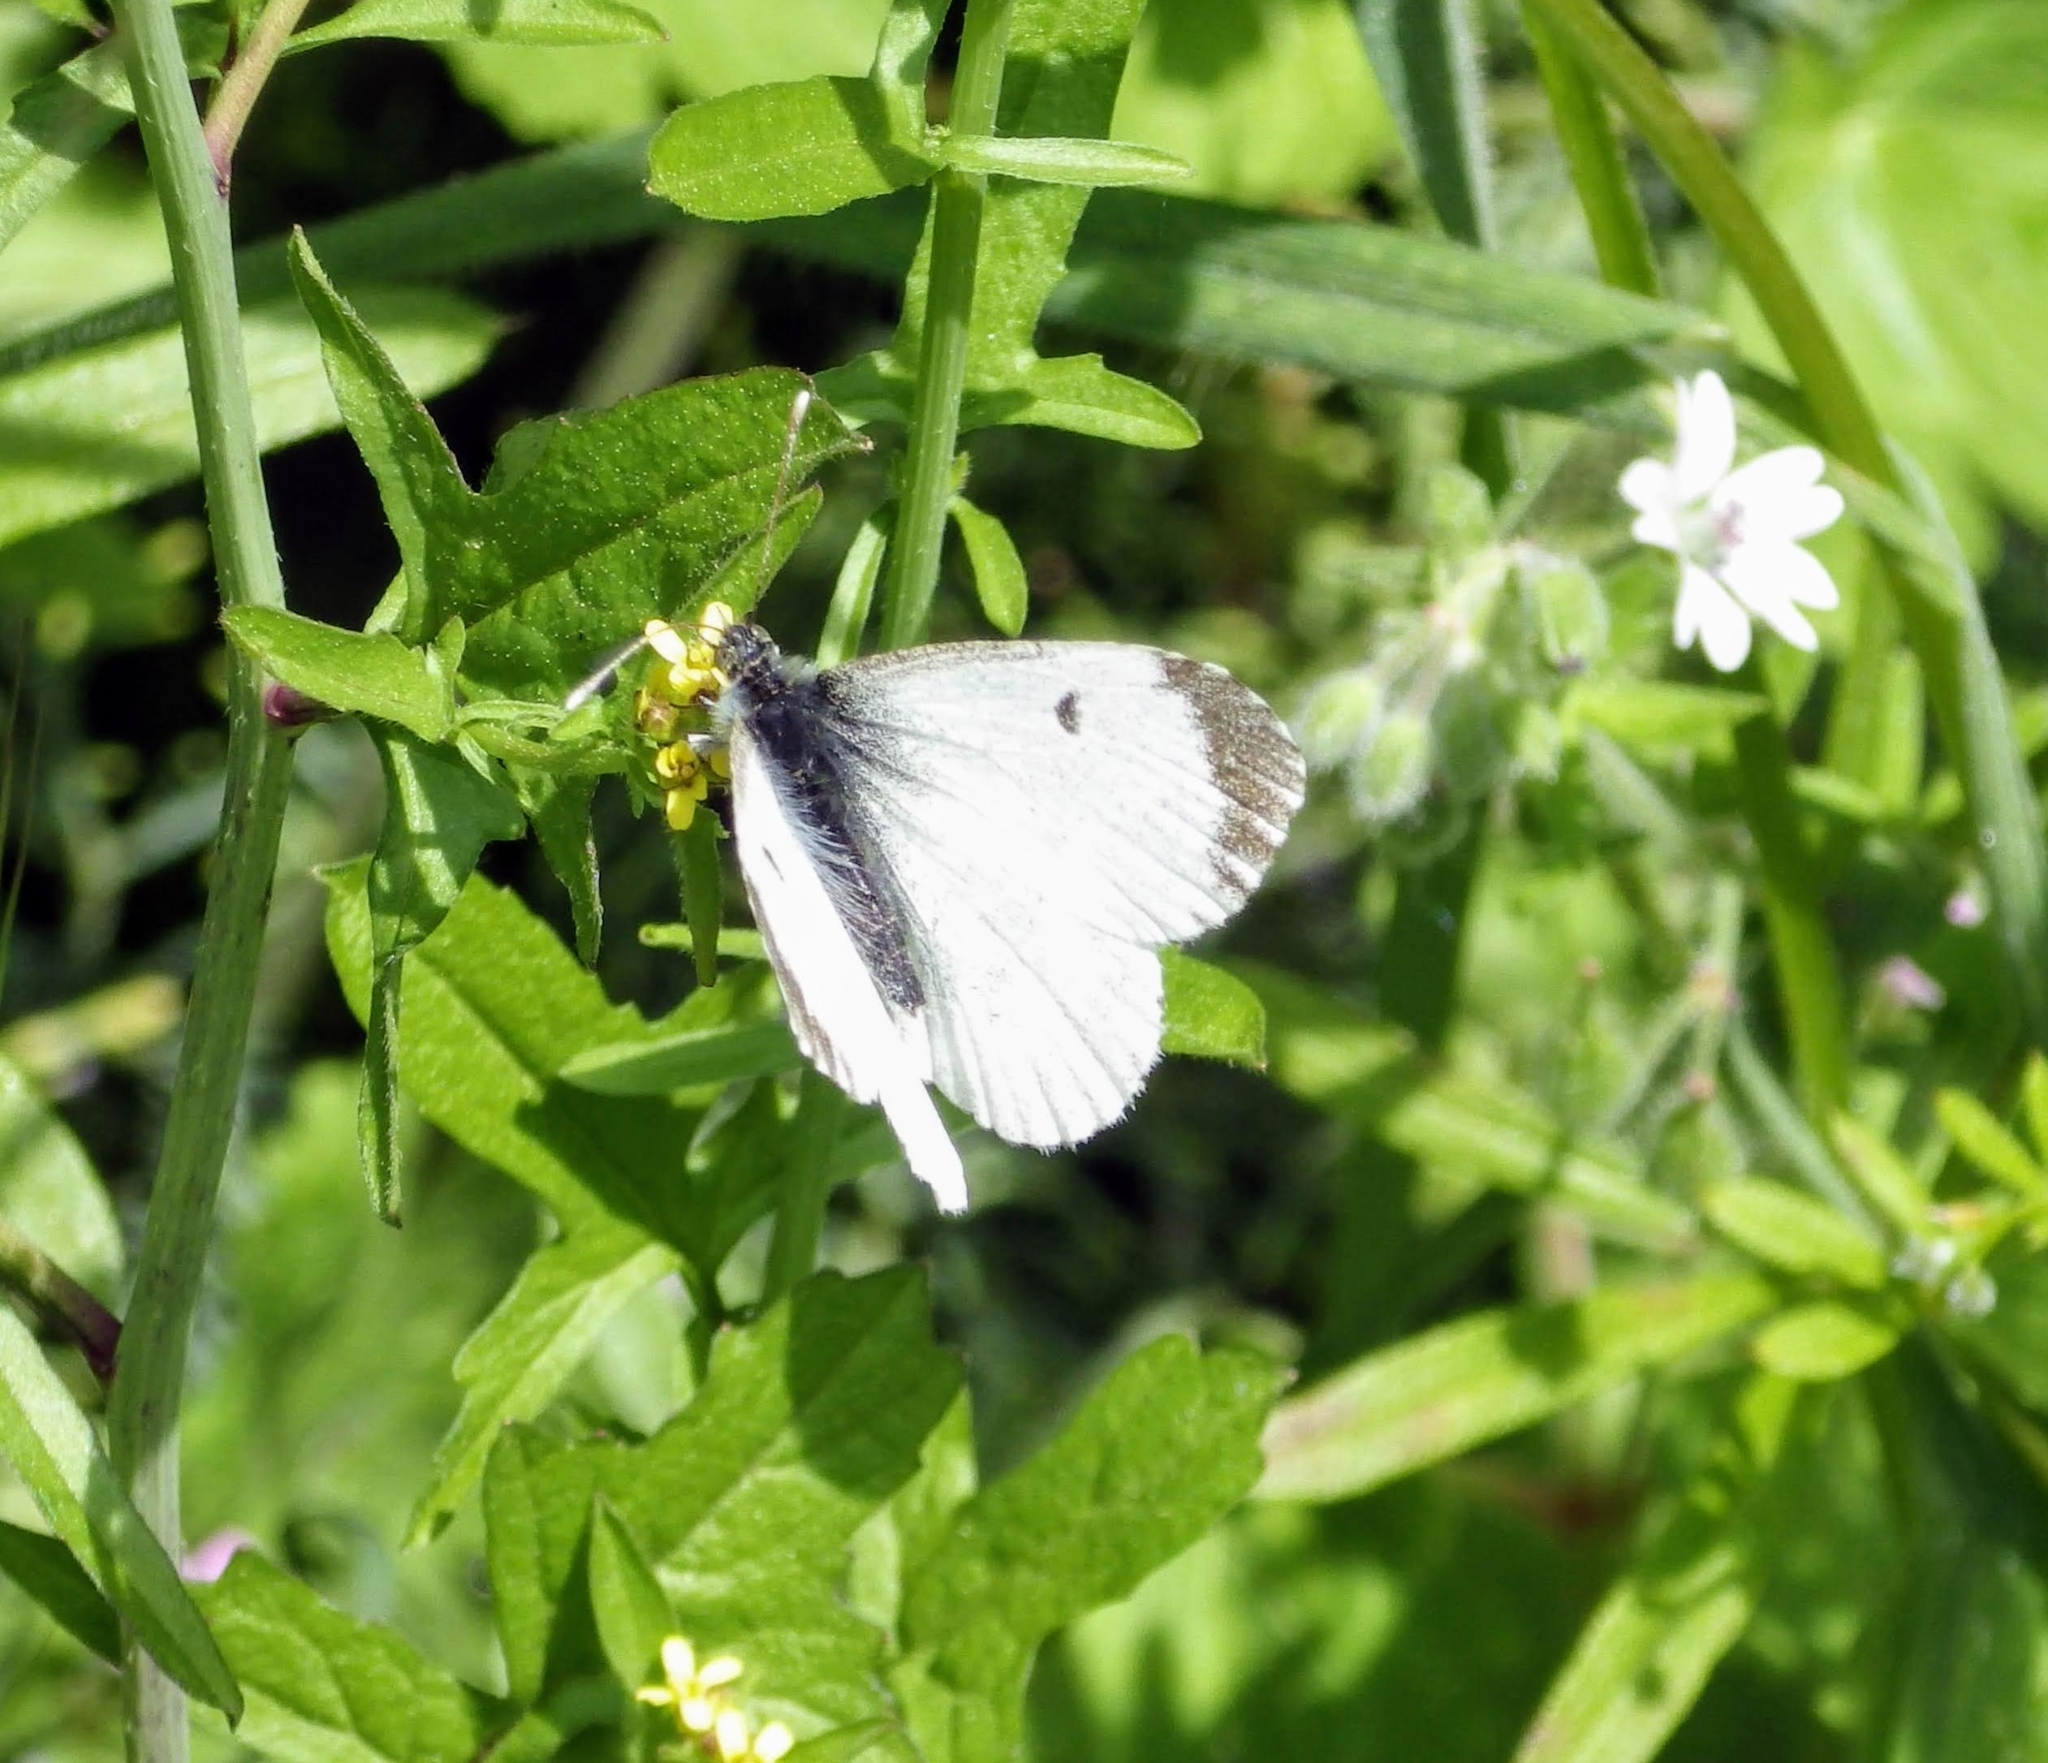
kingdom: Animalia
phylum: Arthropoda
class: Insecta
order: Lepidoptera
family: Pieridae
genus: Anthocharis
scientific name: Anthocharis cardamines
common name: Orange-tip
